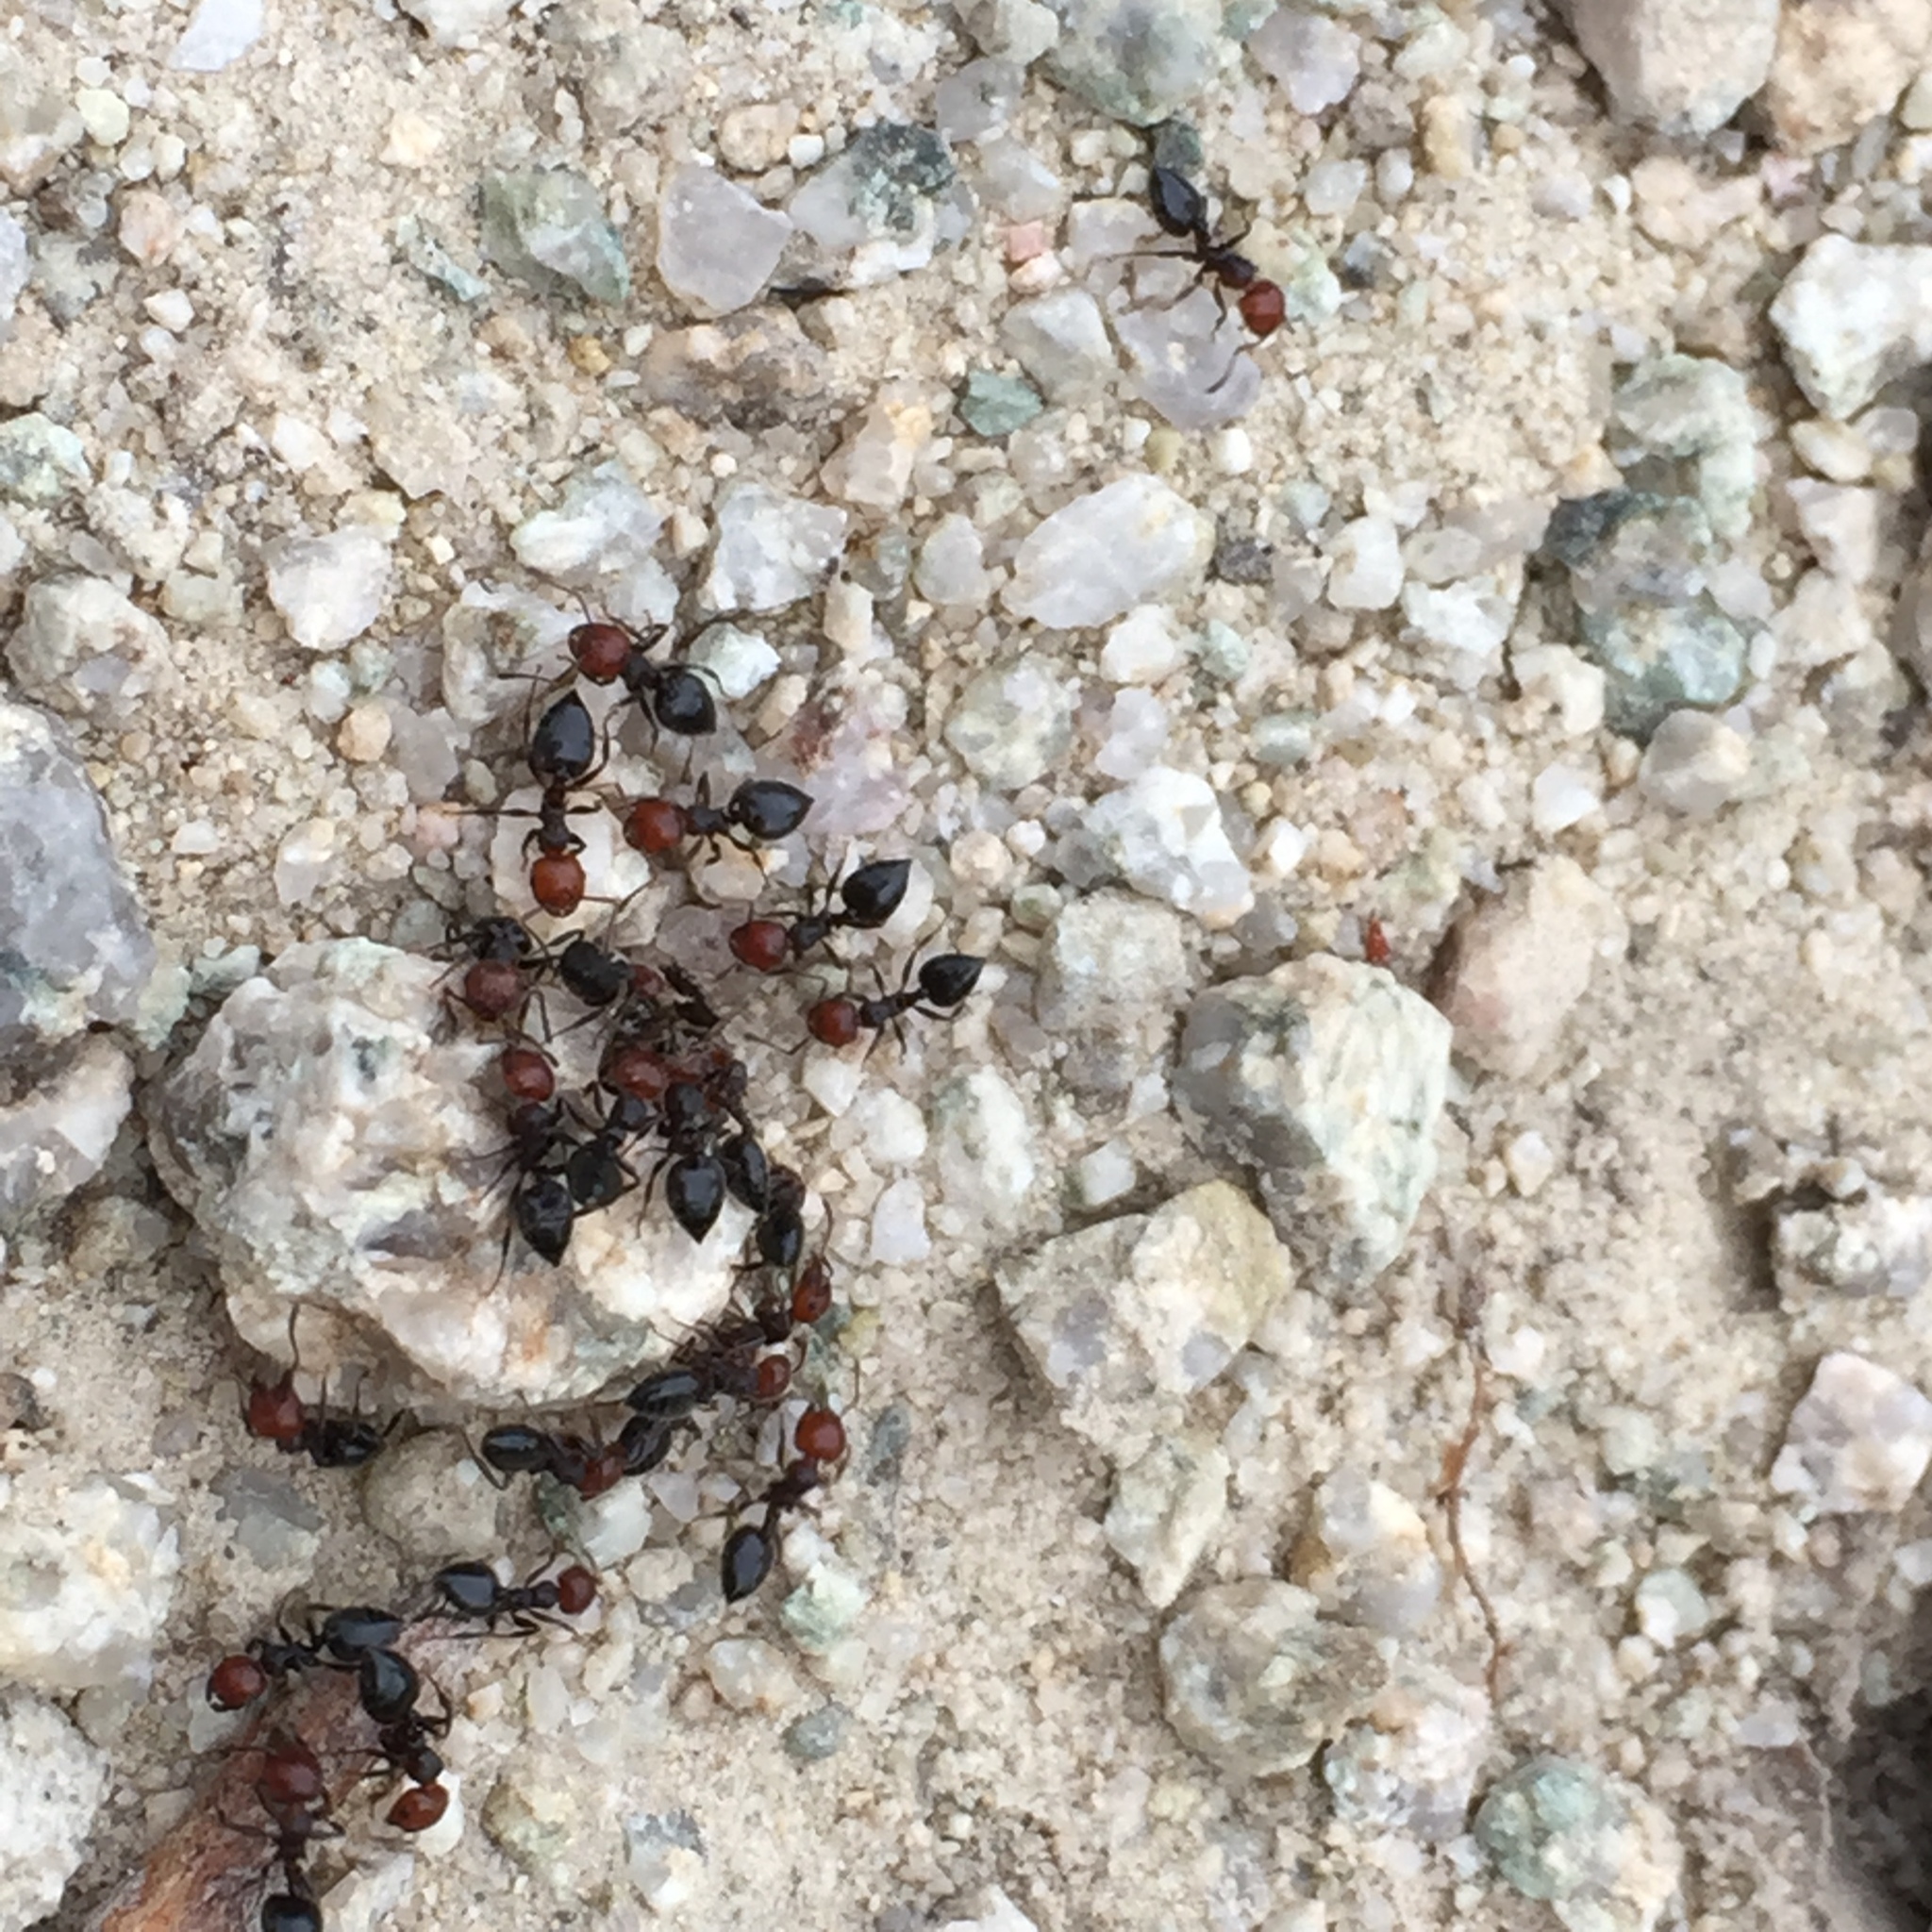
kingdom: Animalia
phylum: Arthropoda
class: Insecta
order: Hymenoptera
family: Formicidae
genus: Crematogaster
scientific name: Crematogaster scutellaris
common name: Fourmi du liège
